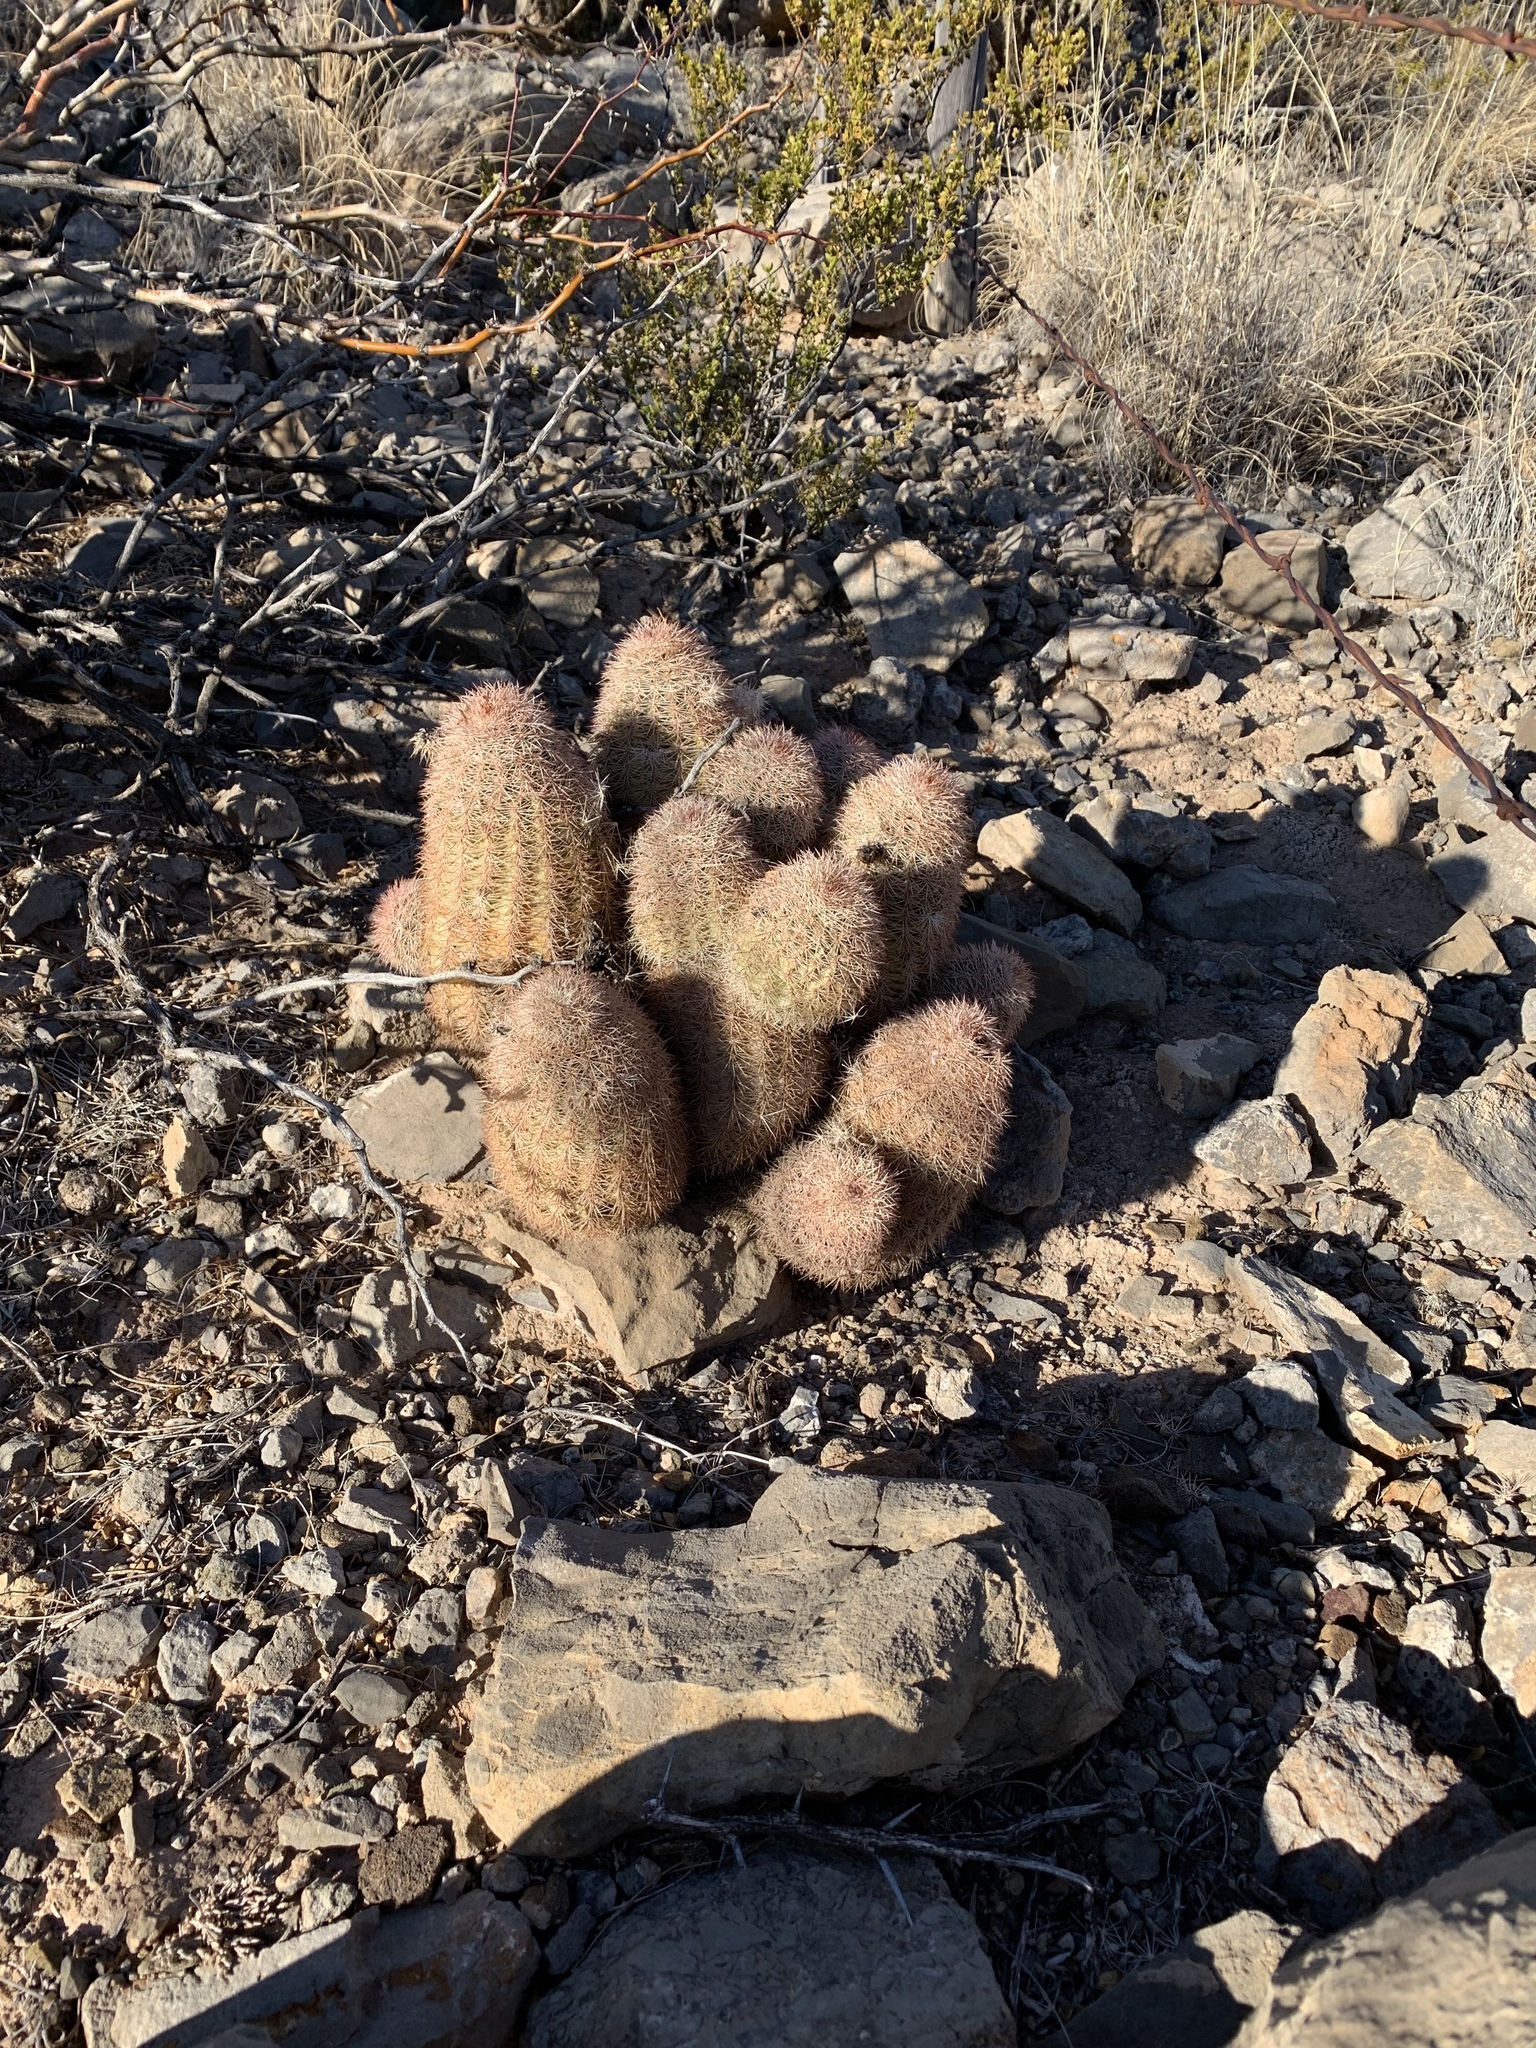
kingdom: Plantae
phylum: Tracheophyta
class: Magnoliopsida
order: Caryophyllales
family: Cactaceae
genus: Echinocereus
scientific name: Echinocereus dasyacanthus
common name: Spiny hedgehog cactus
